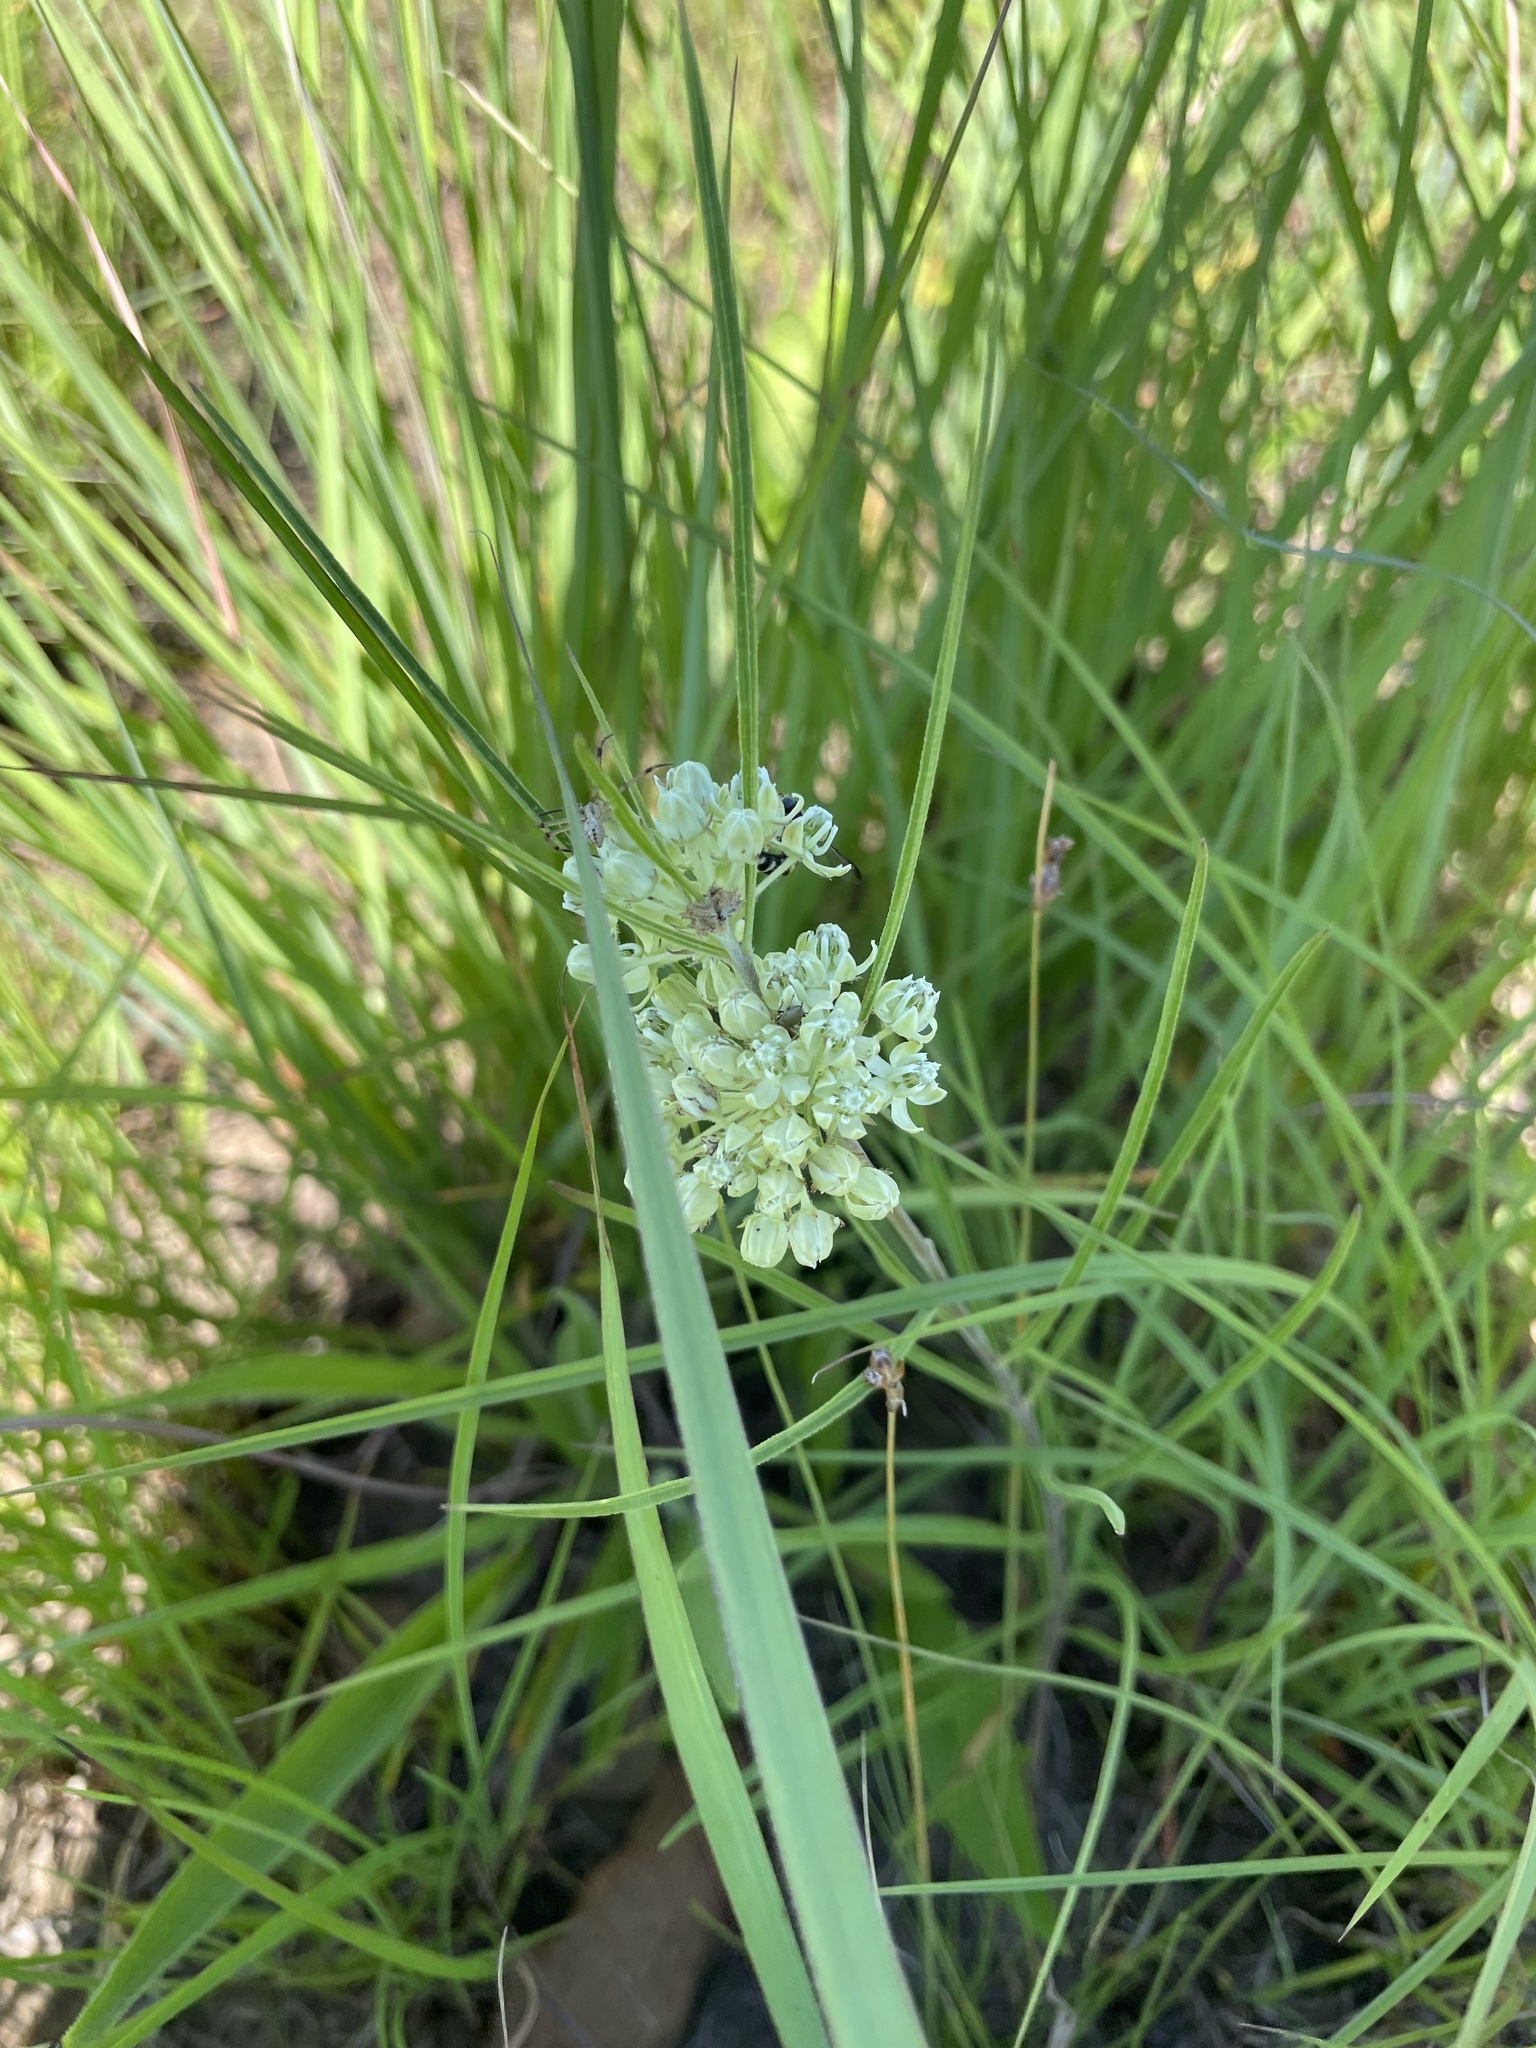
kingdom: Plantae
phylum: Tracheophyta
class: Magnoliopsida
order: Gentianales
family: Apocynaceae
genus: Asclepias
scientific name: Asclepias stenophylla
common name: Narrow-leaf milkweed
